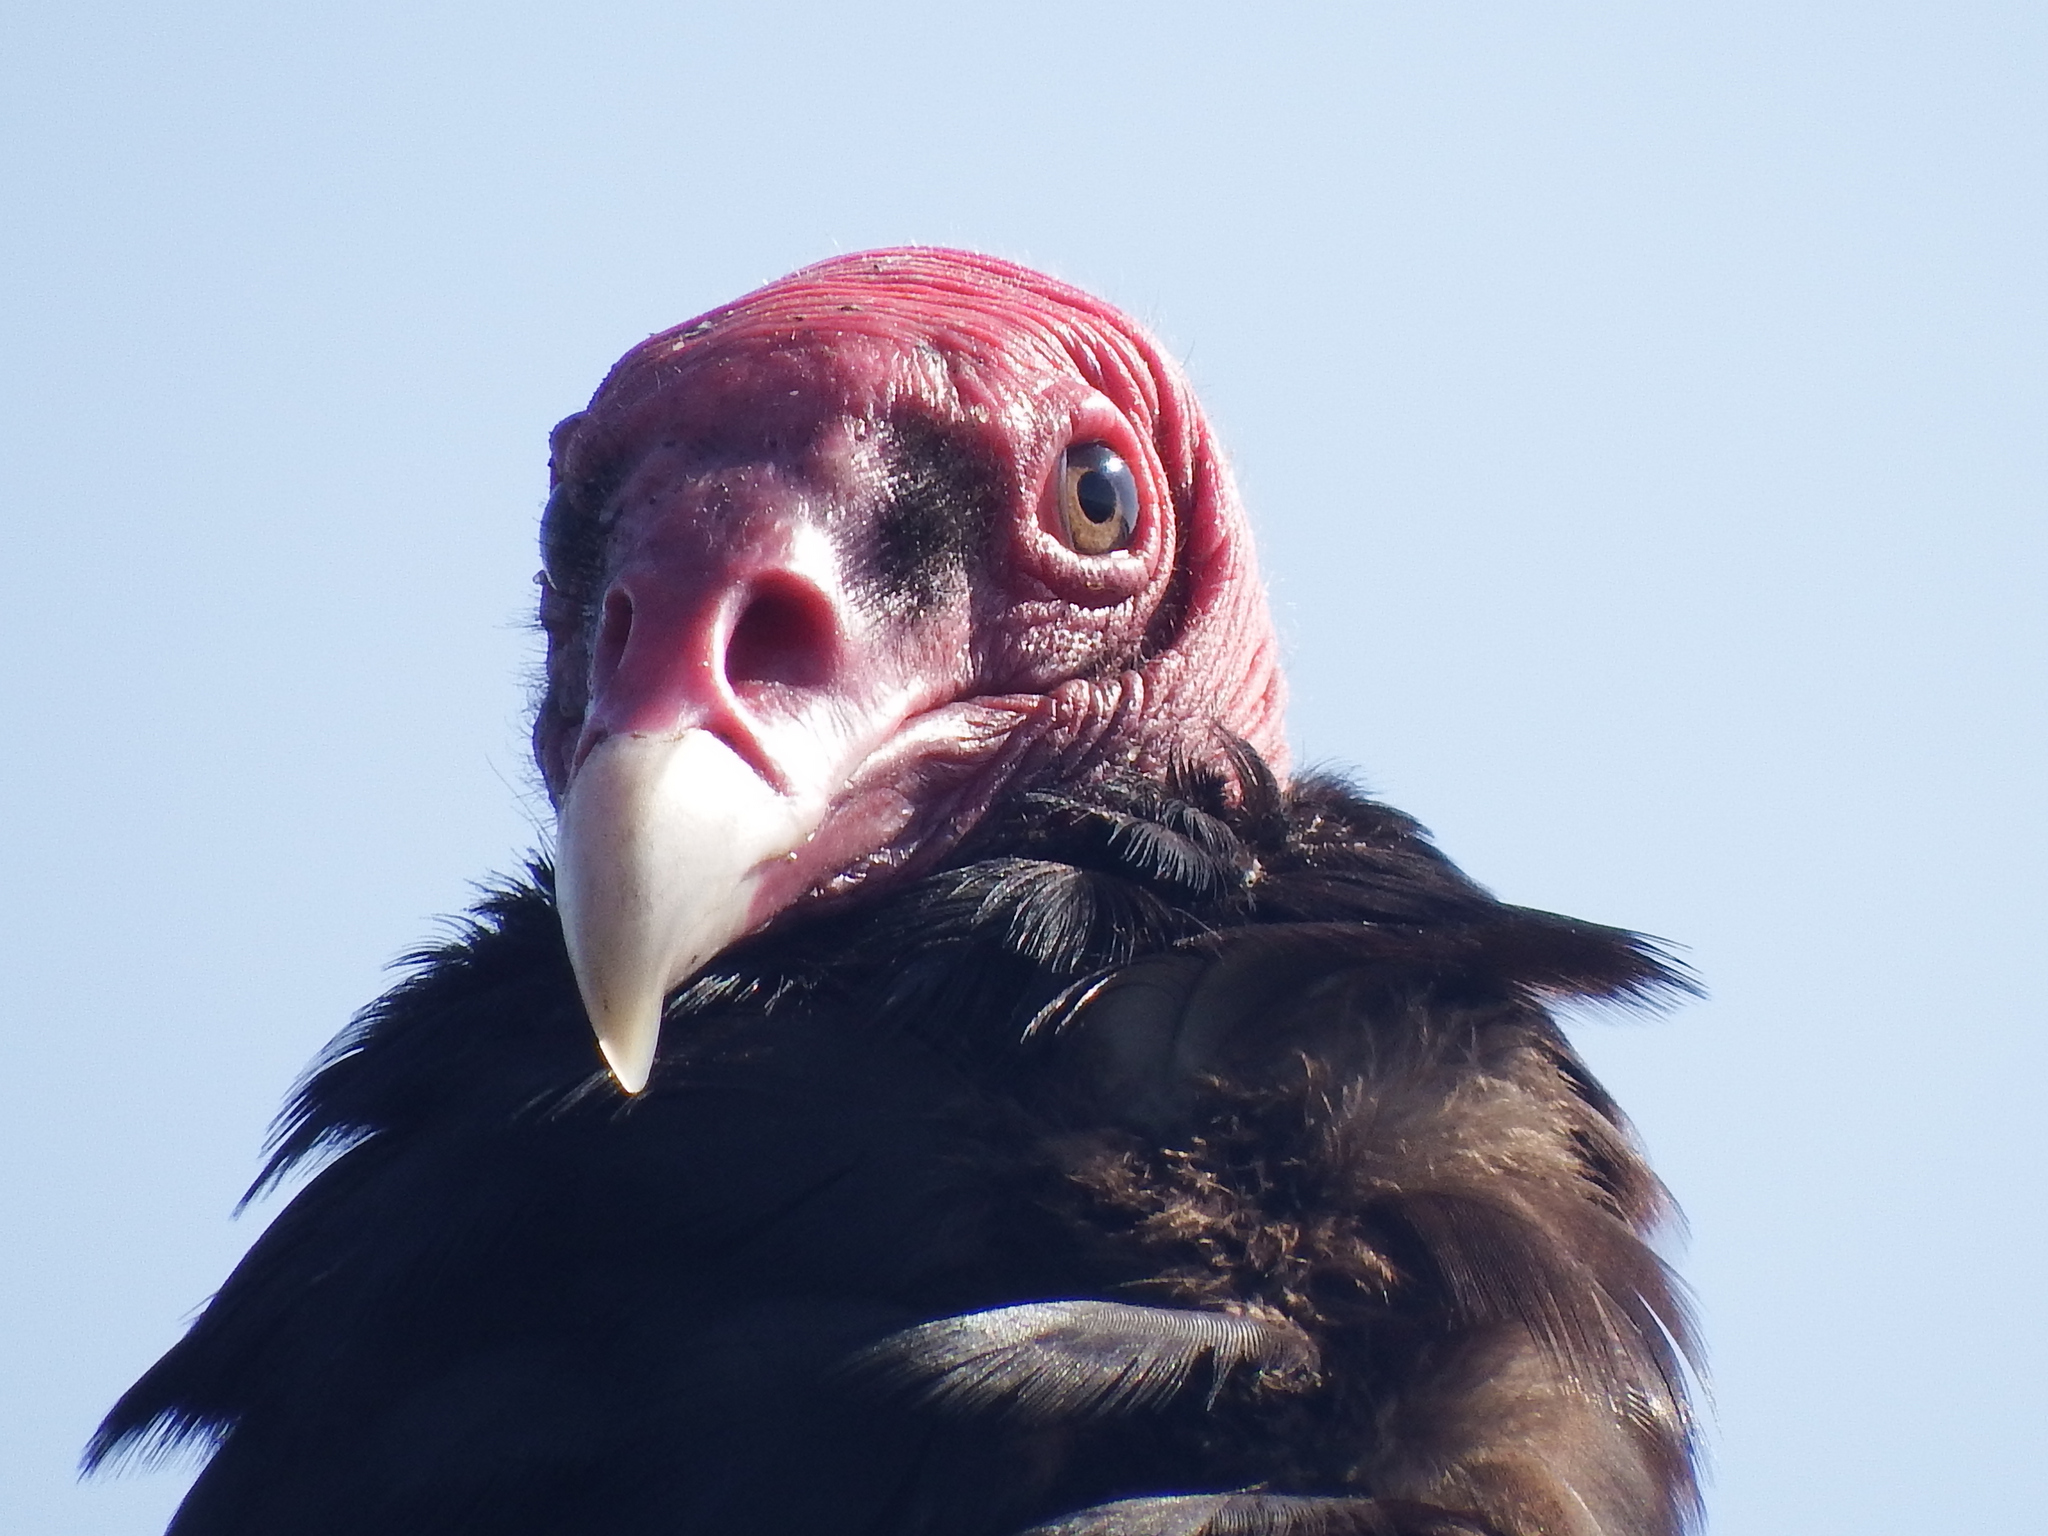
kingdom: Animalia
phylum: Chordata
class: Aves
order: Accipitriformes
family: Cathartidae
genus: Cathartes
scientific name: Cathartes aura
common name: Turkey vulture
